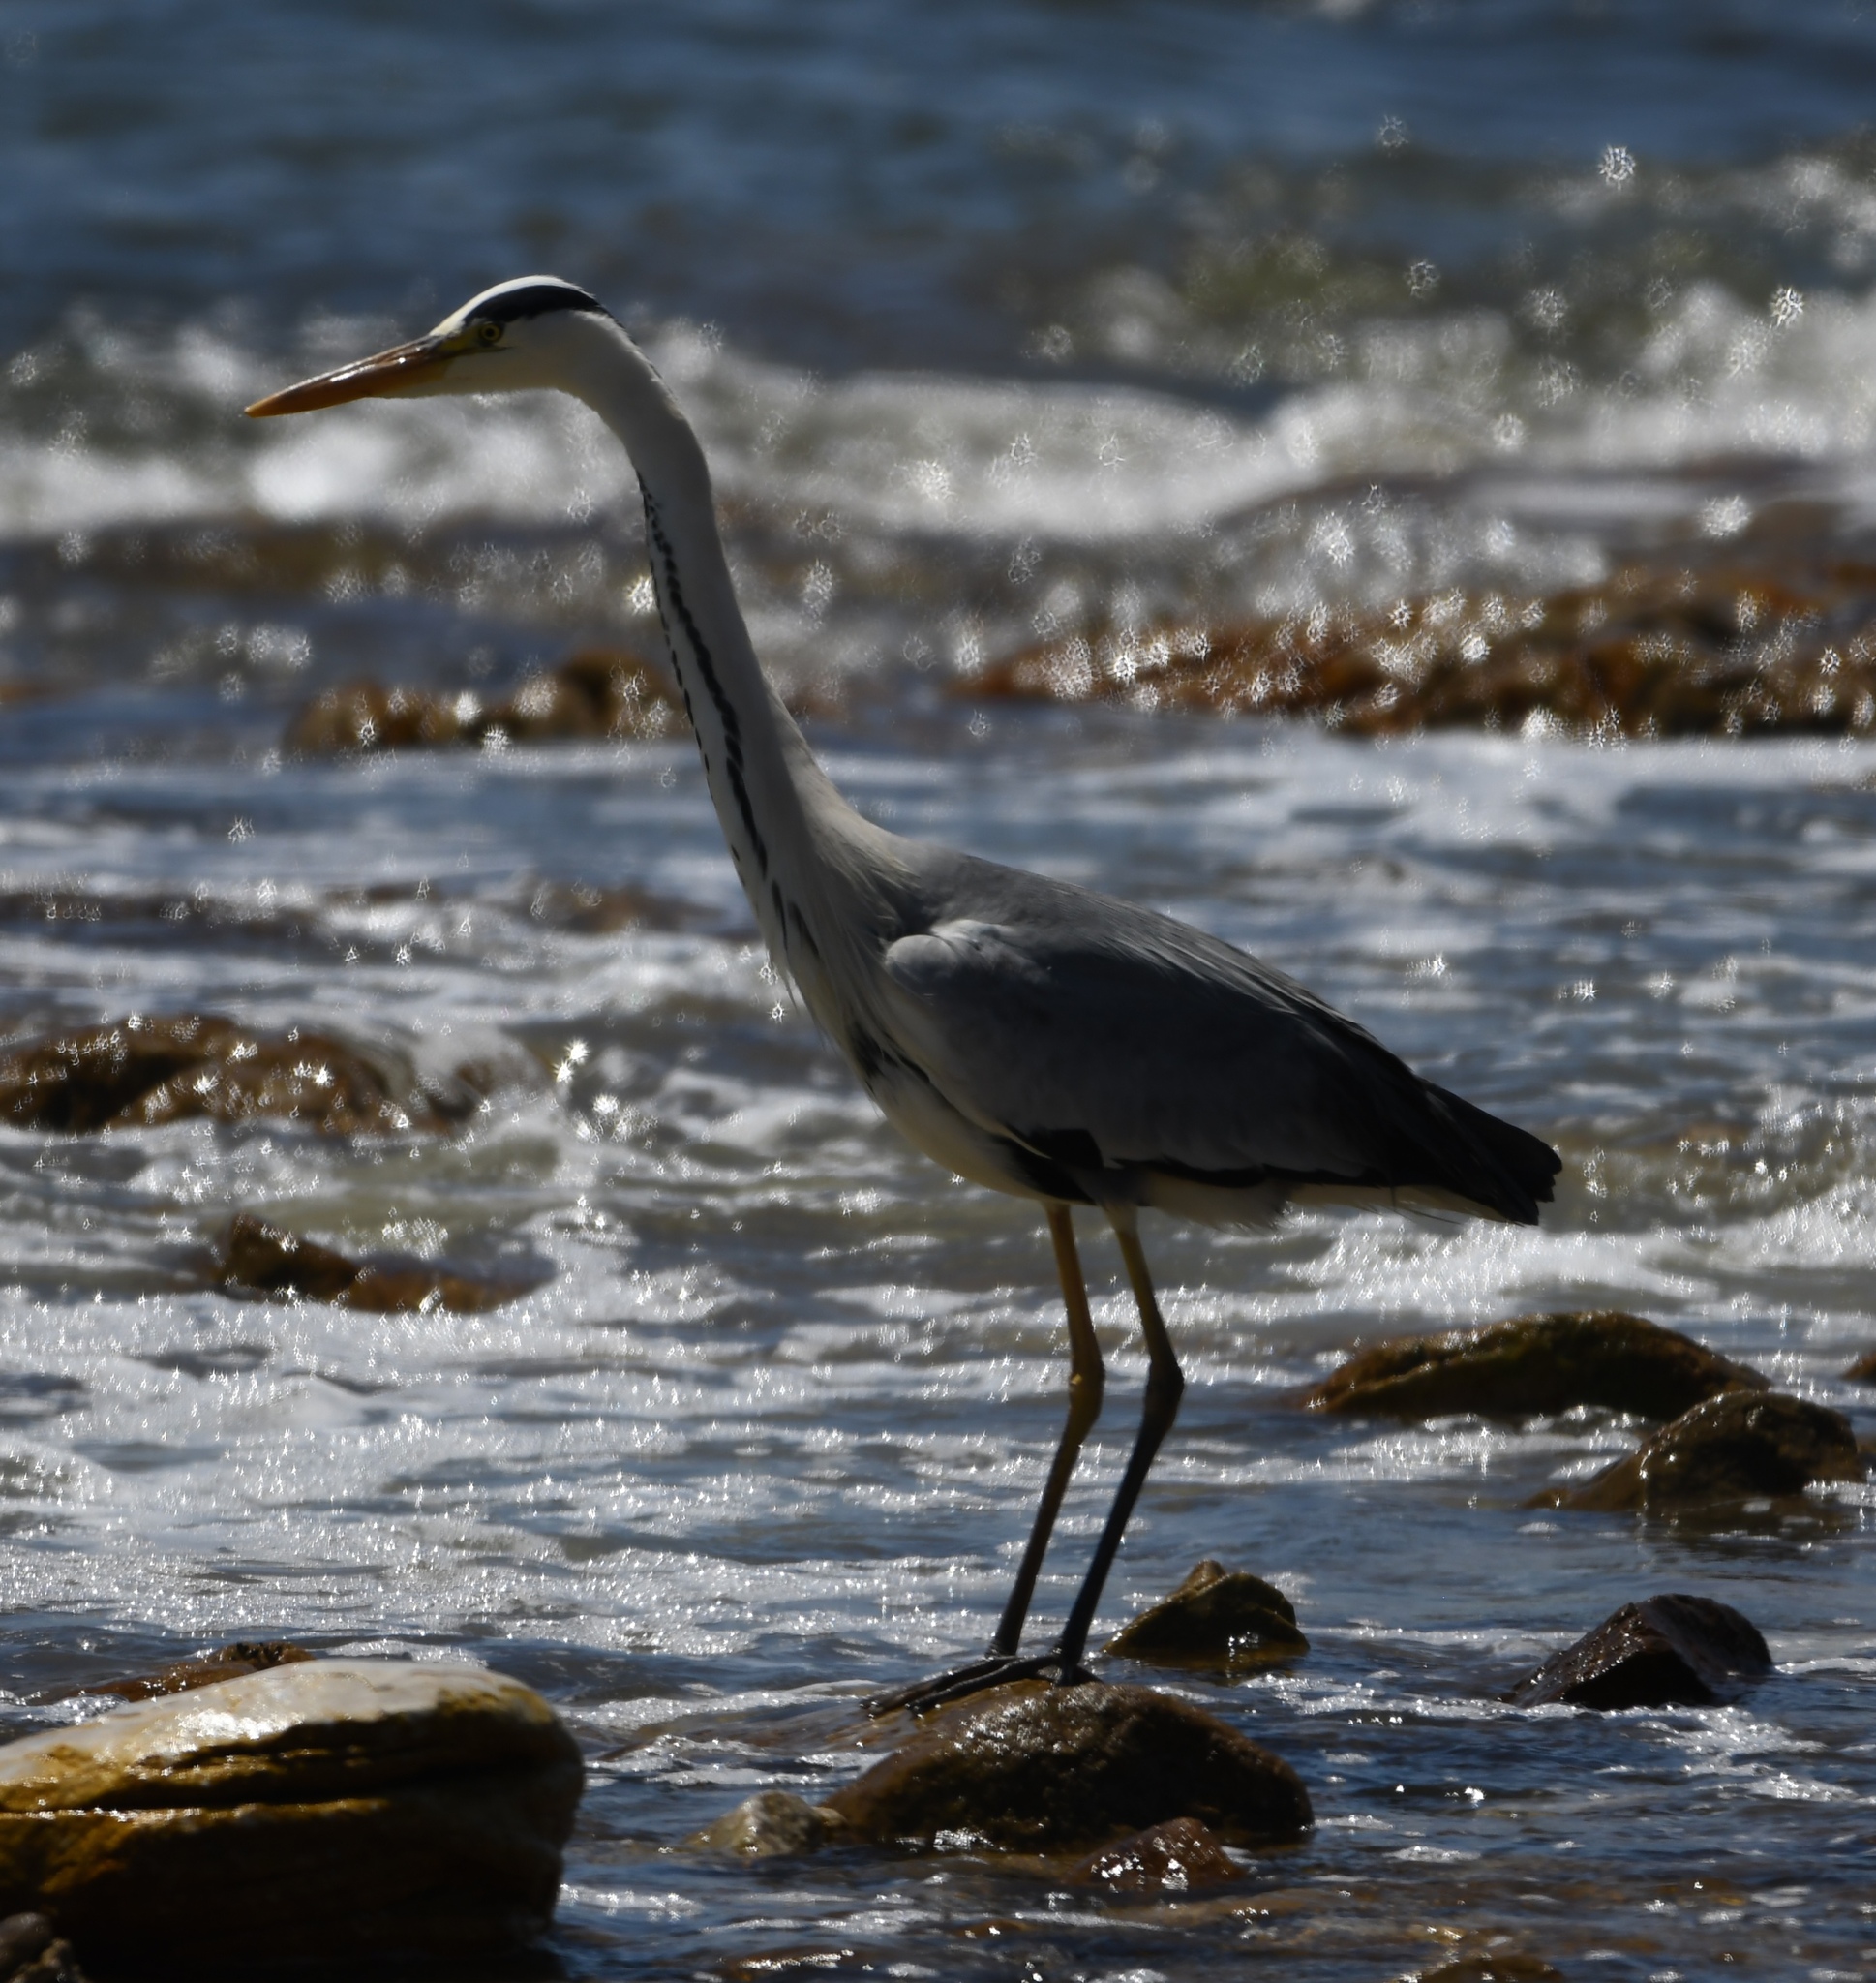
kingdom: Animalia
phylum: Chordata
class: Aves
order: Pelecaniformes
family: Ardeidae
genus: Ardea
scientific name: Ardea cinerea
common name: Grey heron
